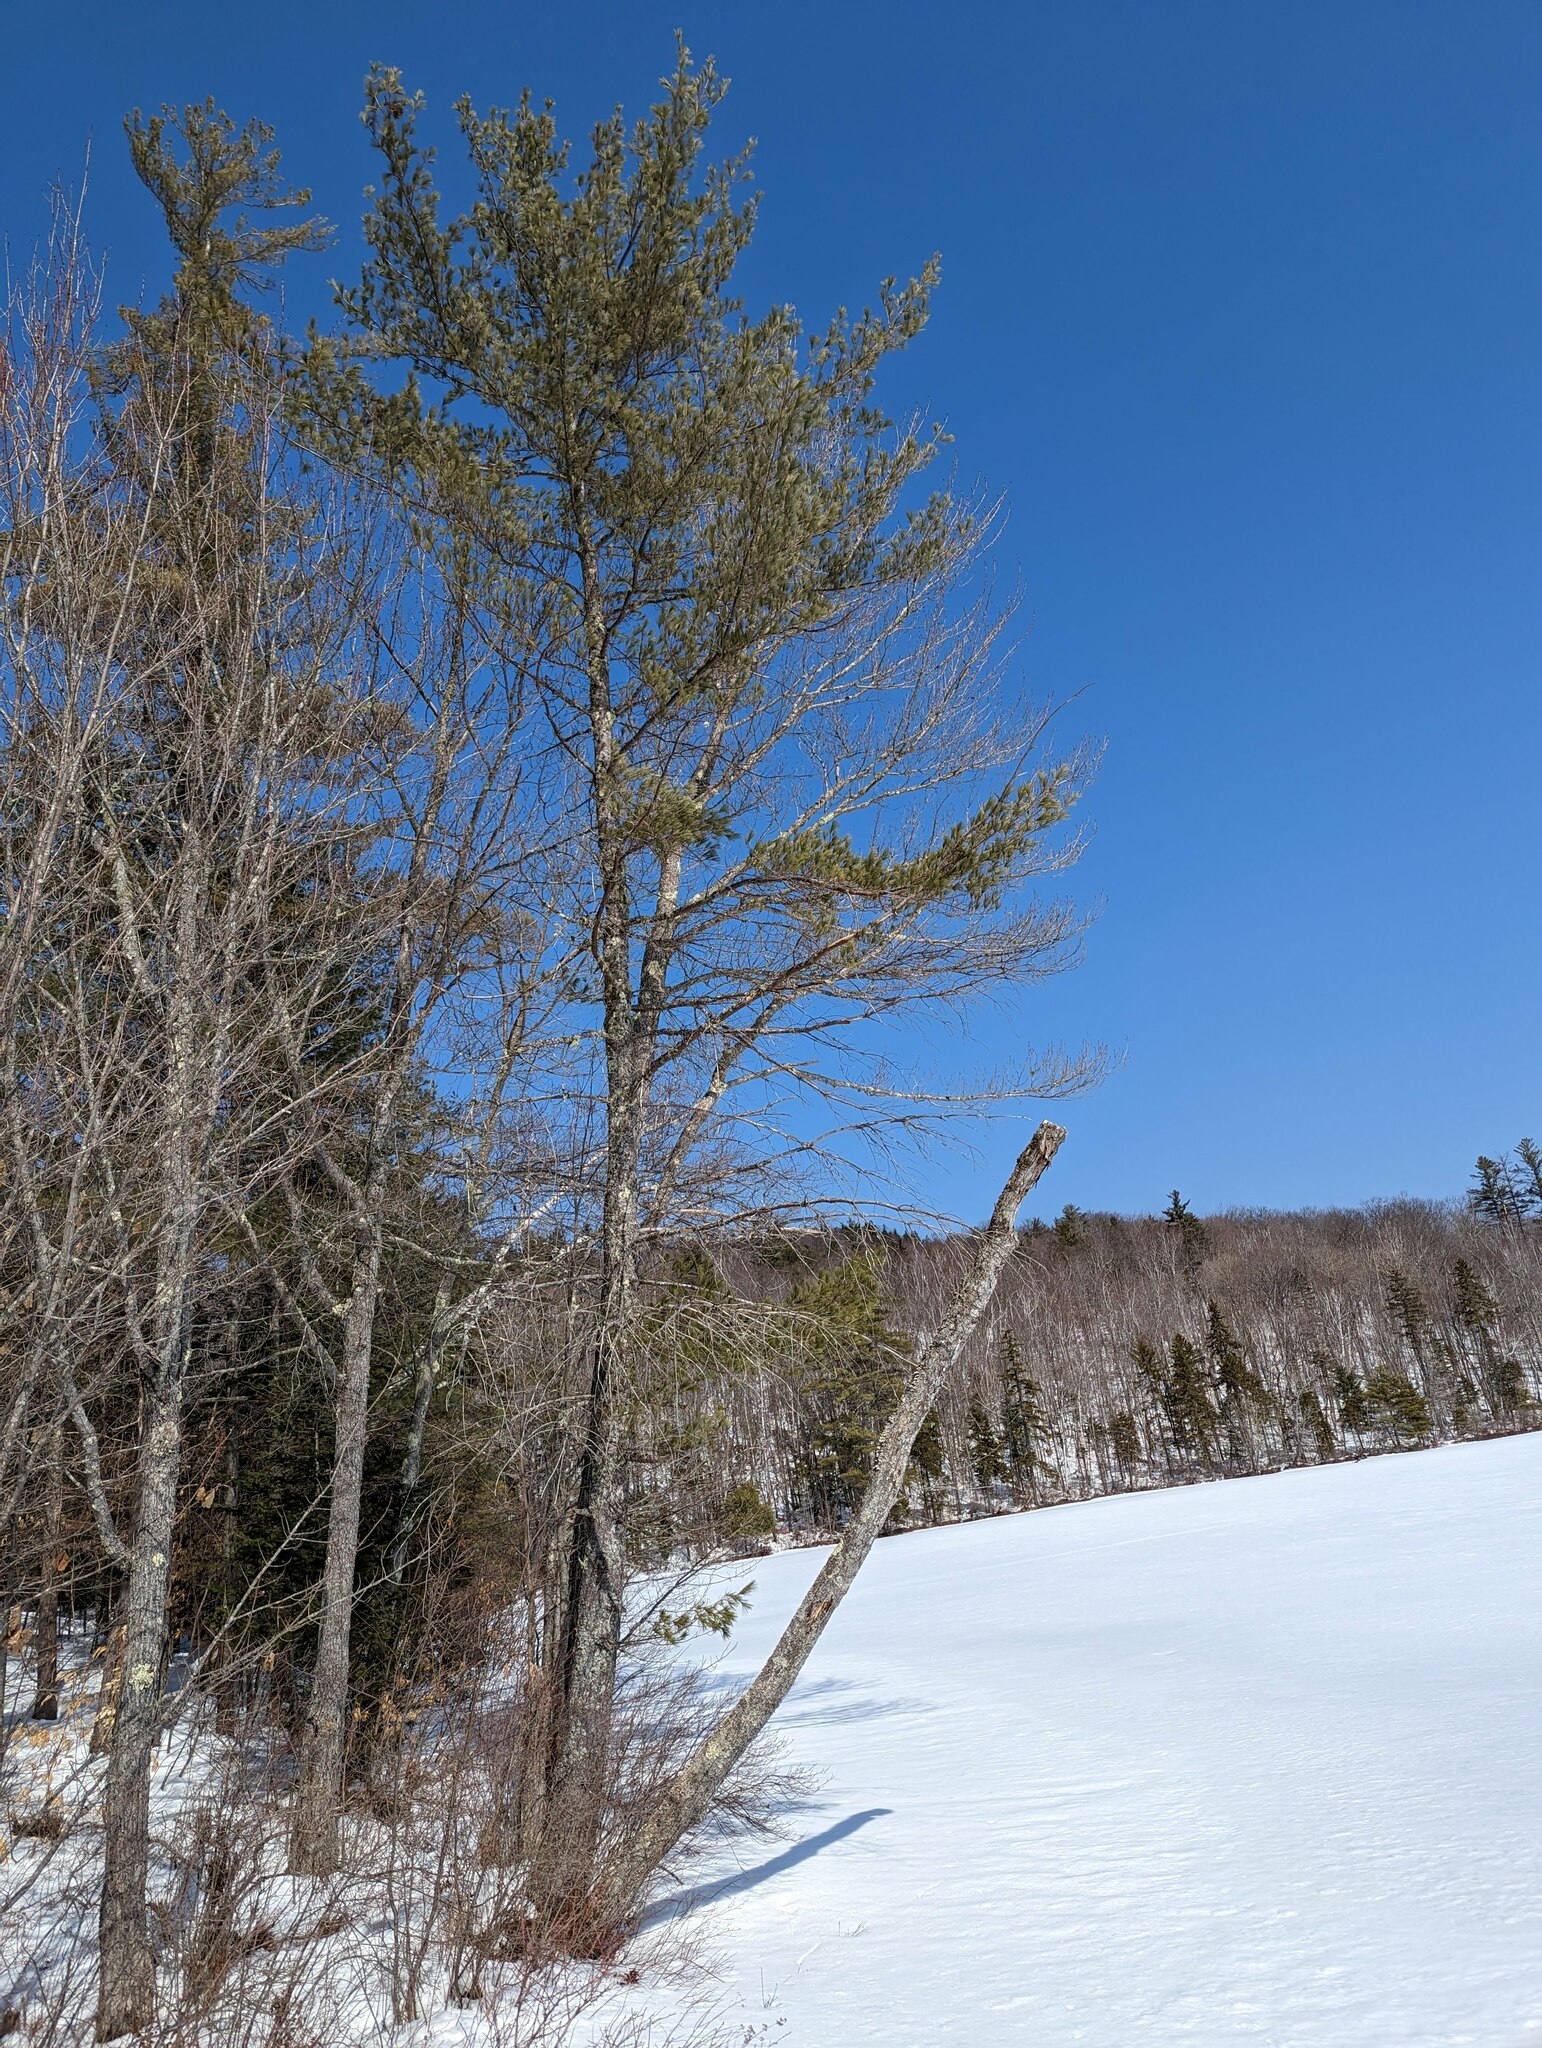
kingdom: Plantae
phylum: Tracheophyta
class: Pinopsida
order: Pinales
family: Pinaceae
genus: Pinus
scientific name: Pinus strobus
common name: Weymouth pine
